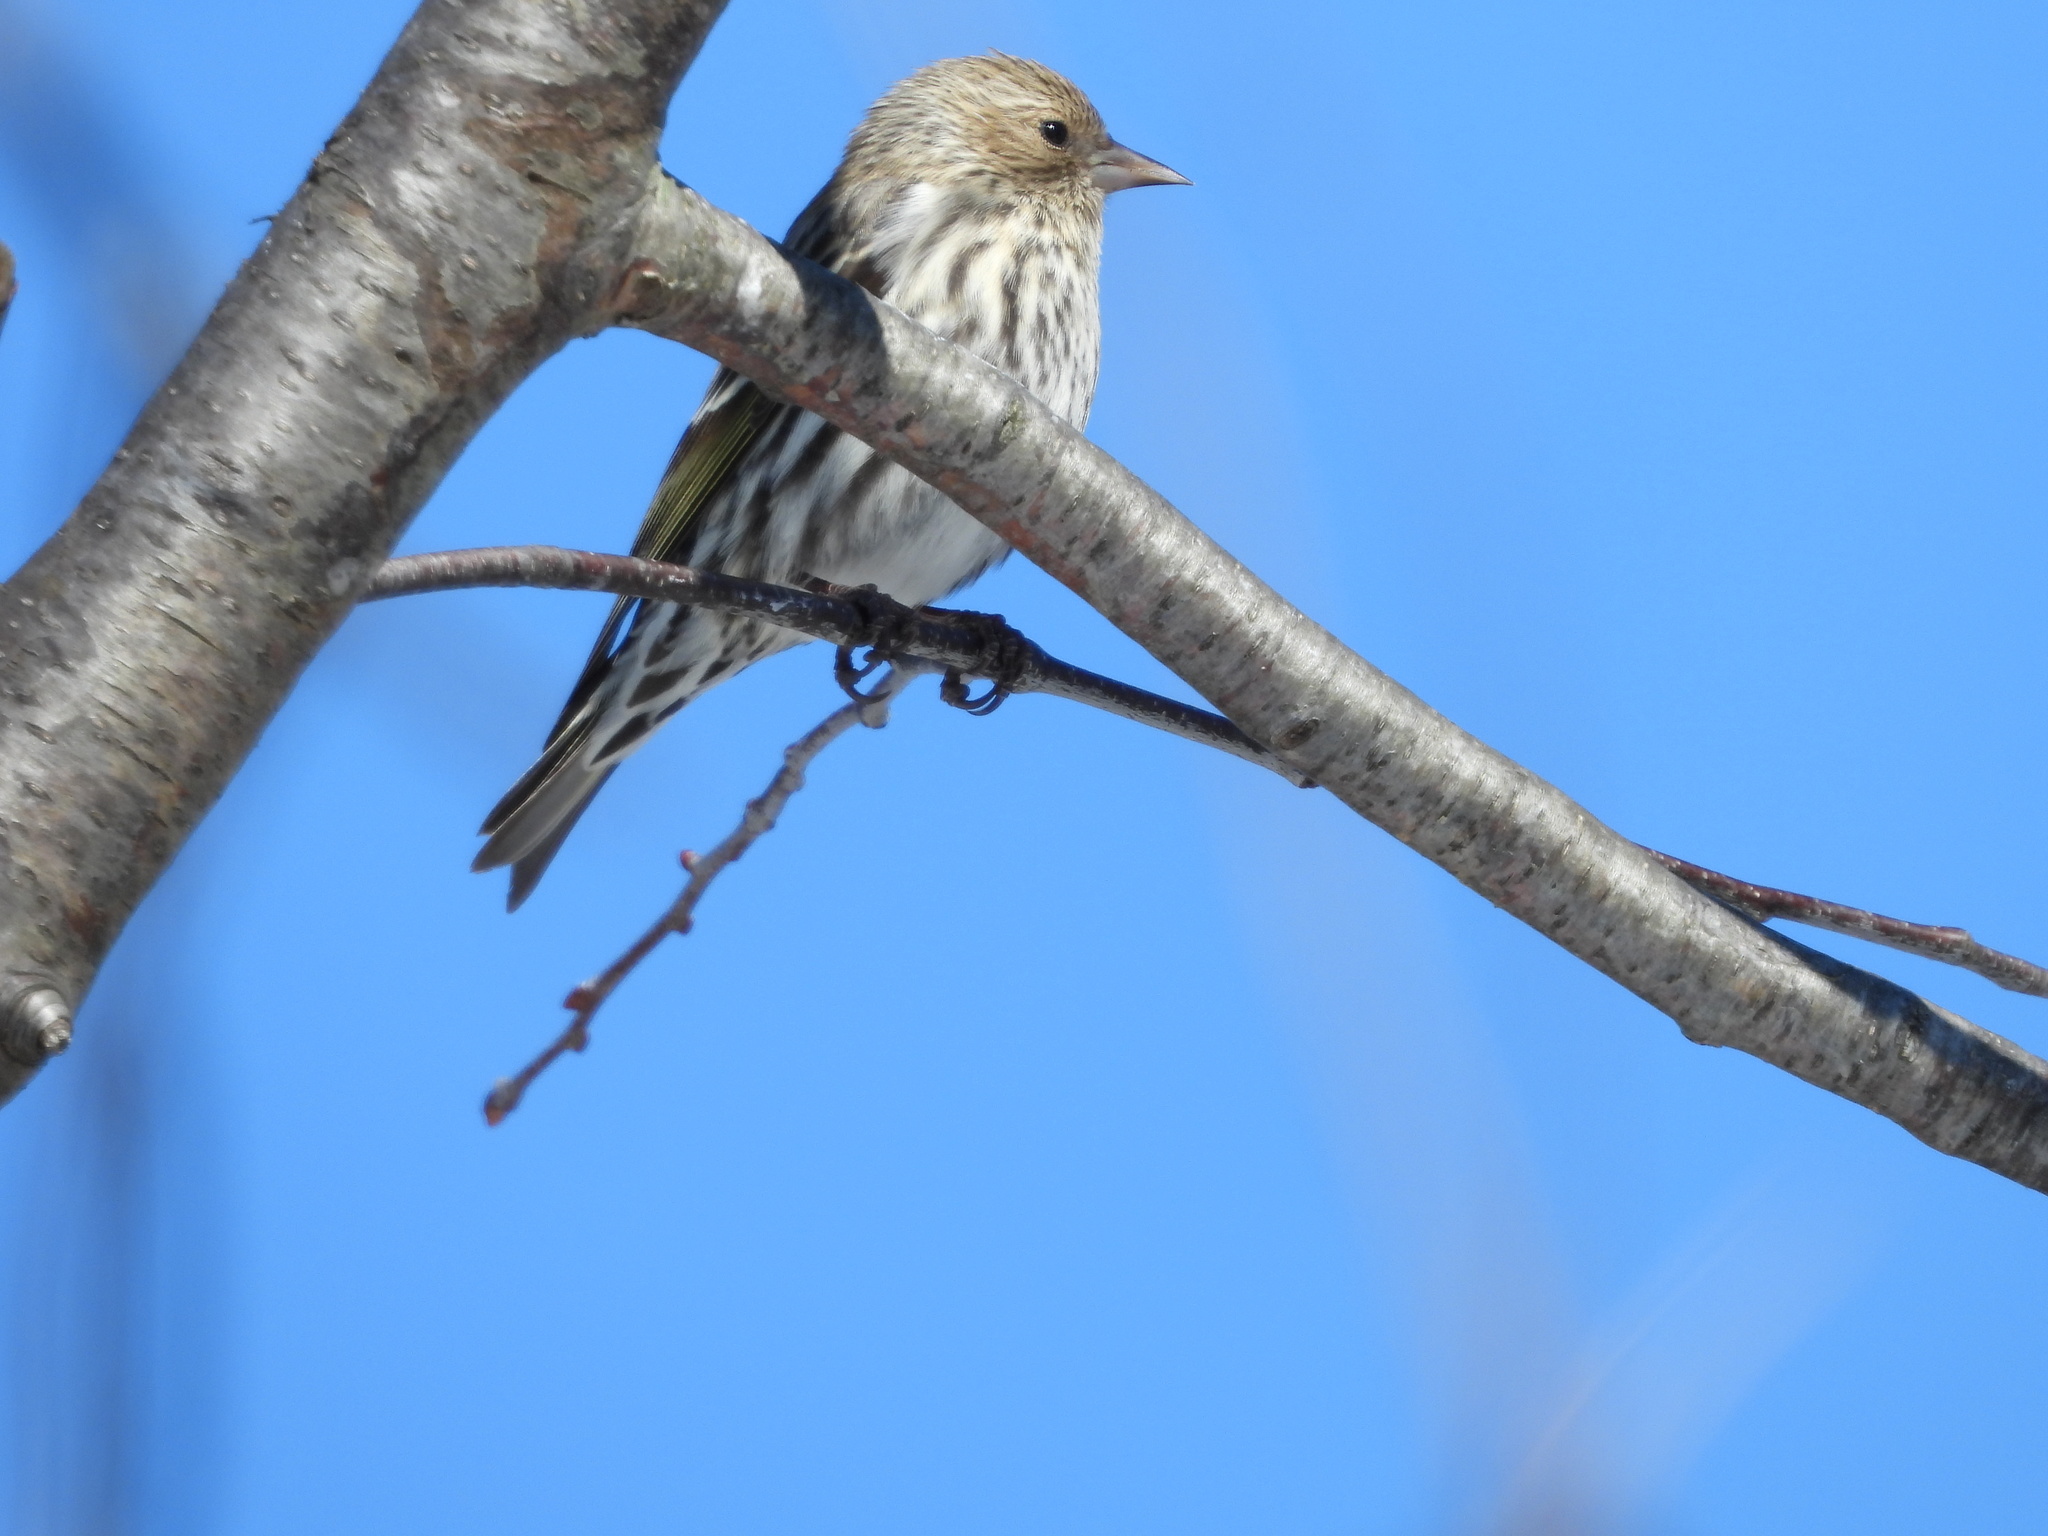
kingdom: Animalia
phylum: Chordata
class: Aves
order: Passeriformes
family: Fringillidae
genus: Spinus
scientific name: Spinus pinus
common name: Pine siskin
